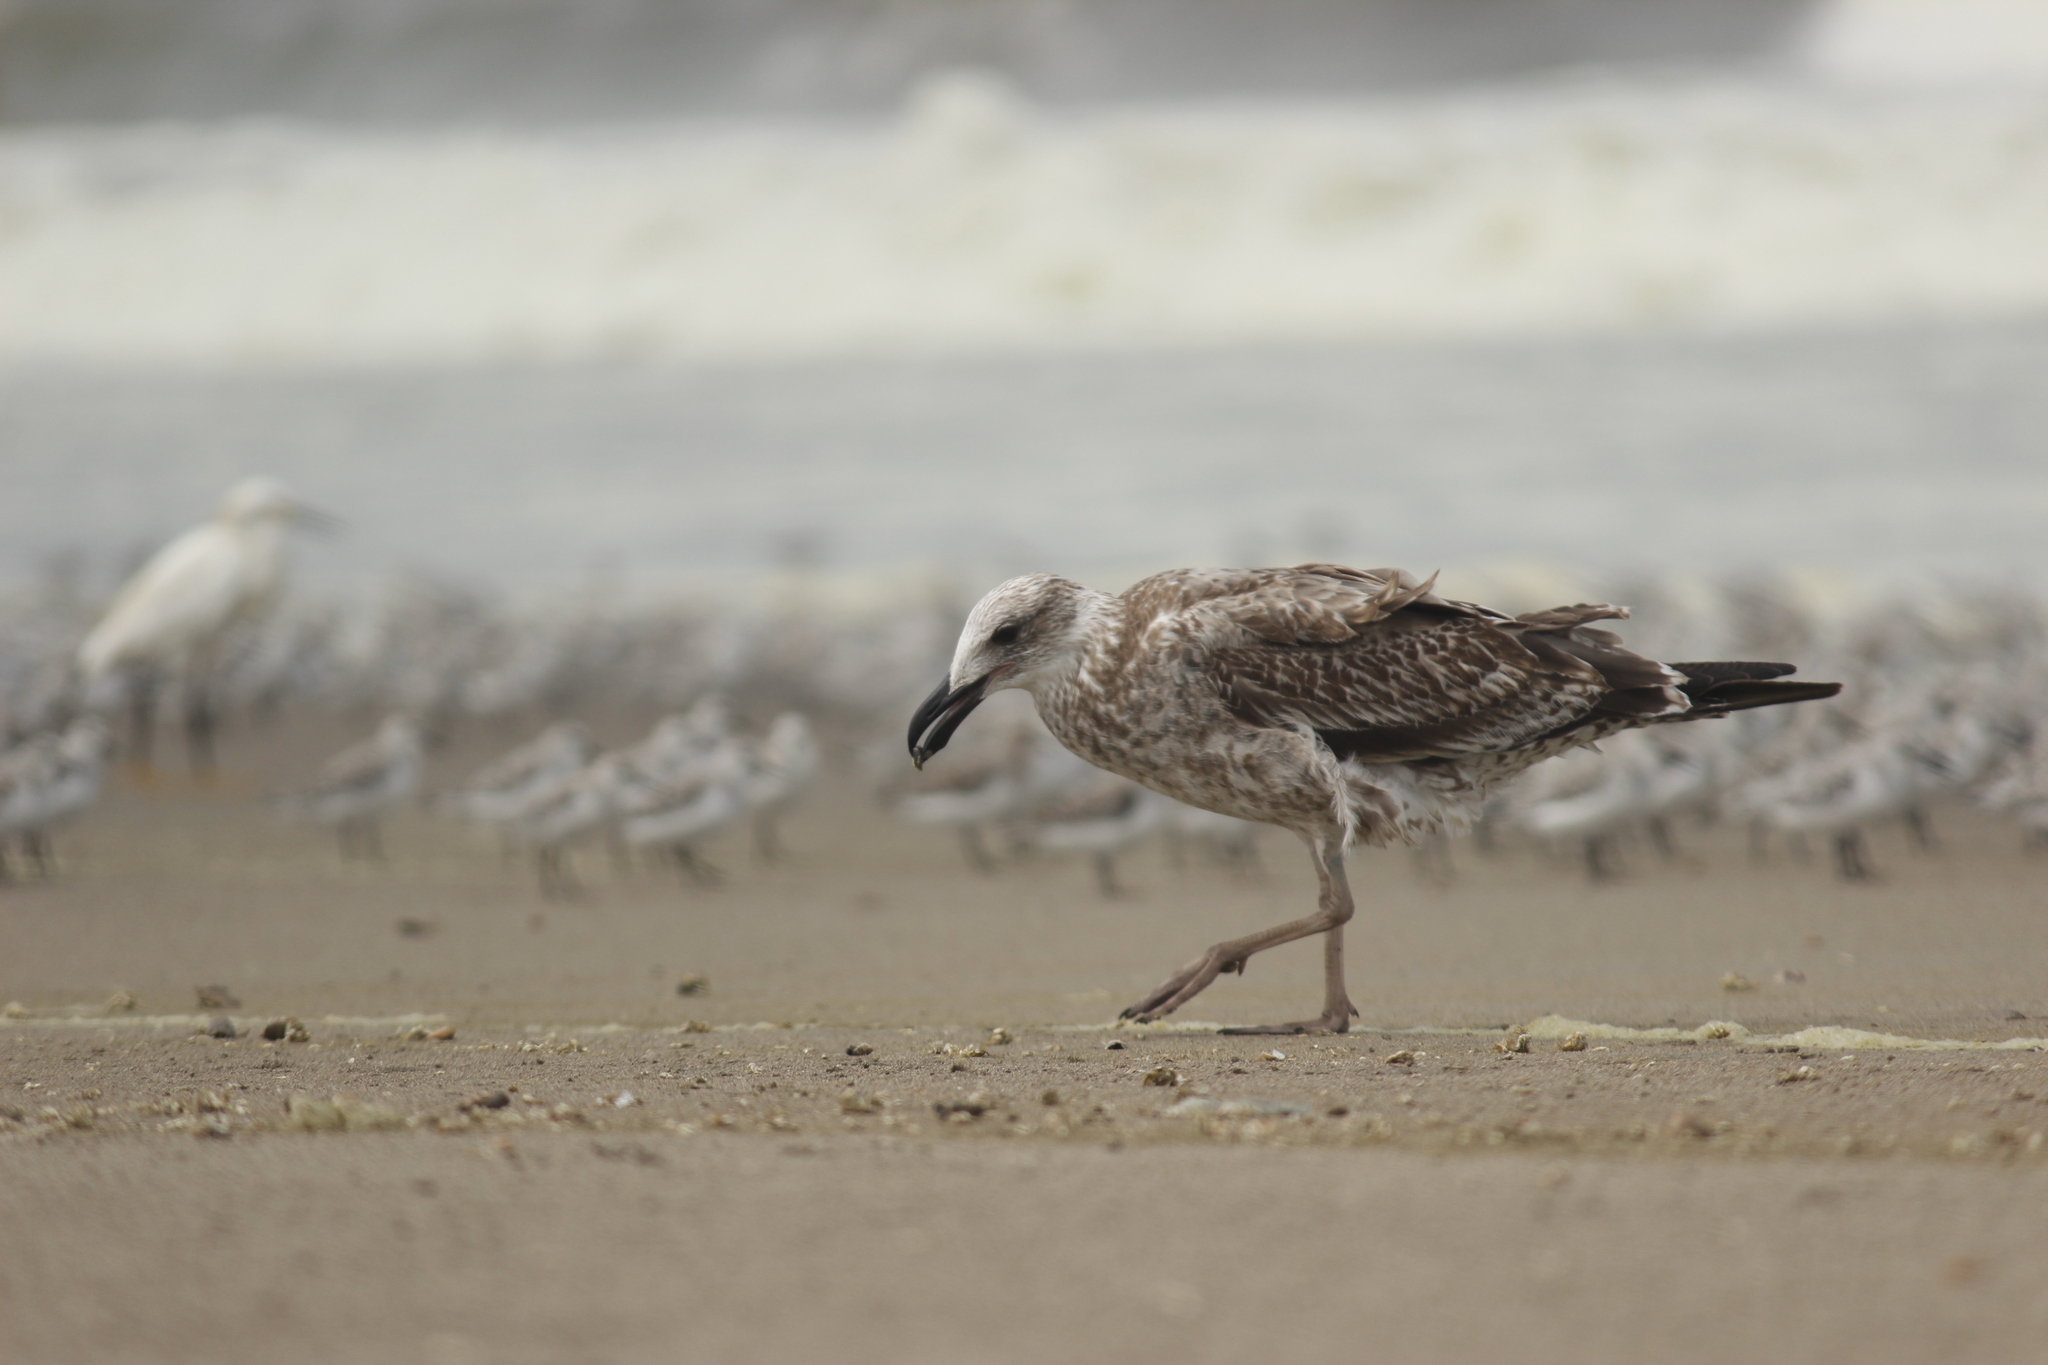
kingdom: Animalia
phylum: Chordata
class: Aves
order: Charadriiformes
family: Laridae
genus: Larus
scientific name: Larus dominicanus
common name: Kelp gull
